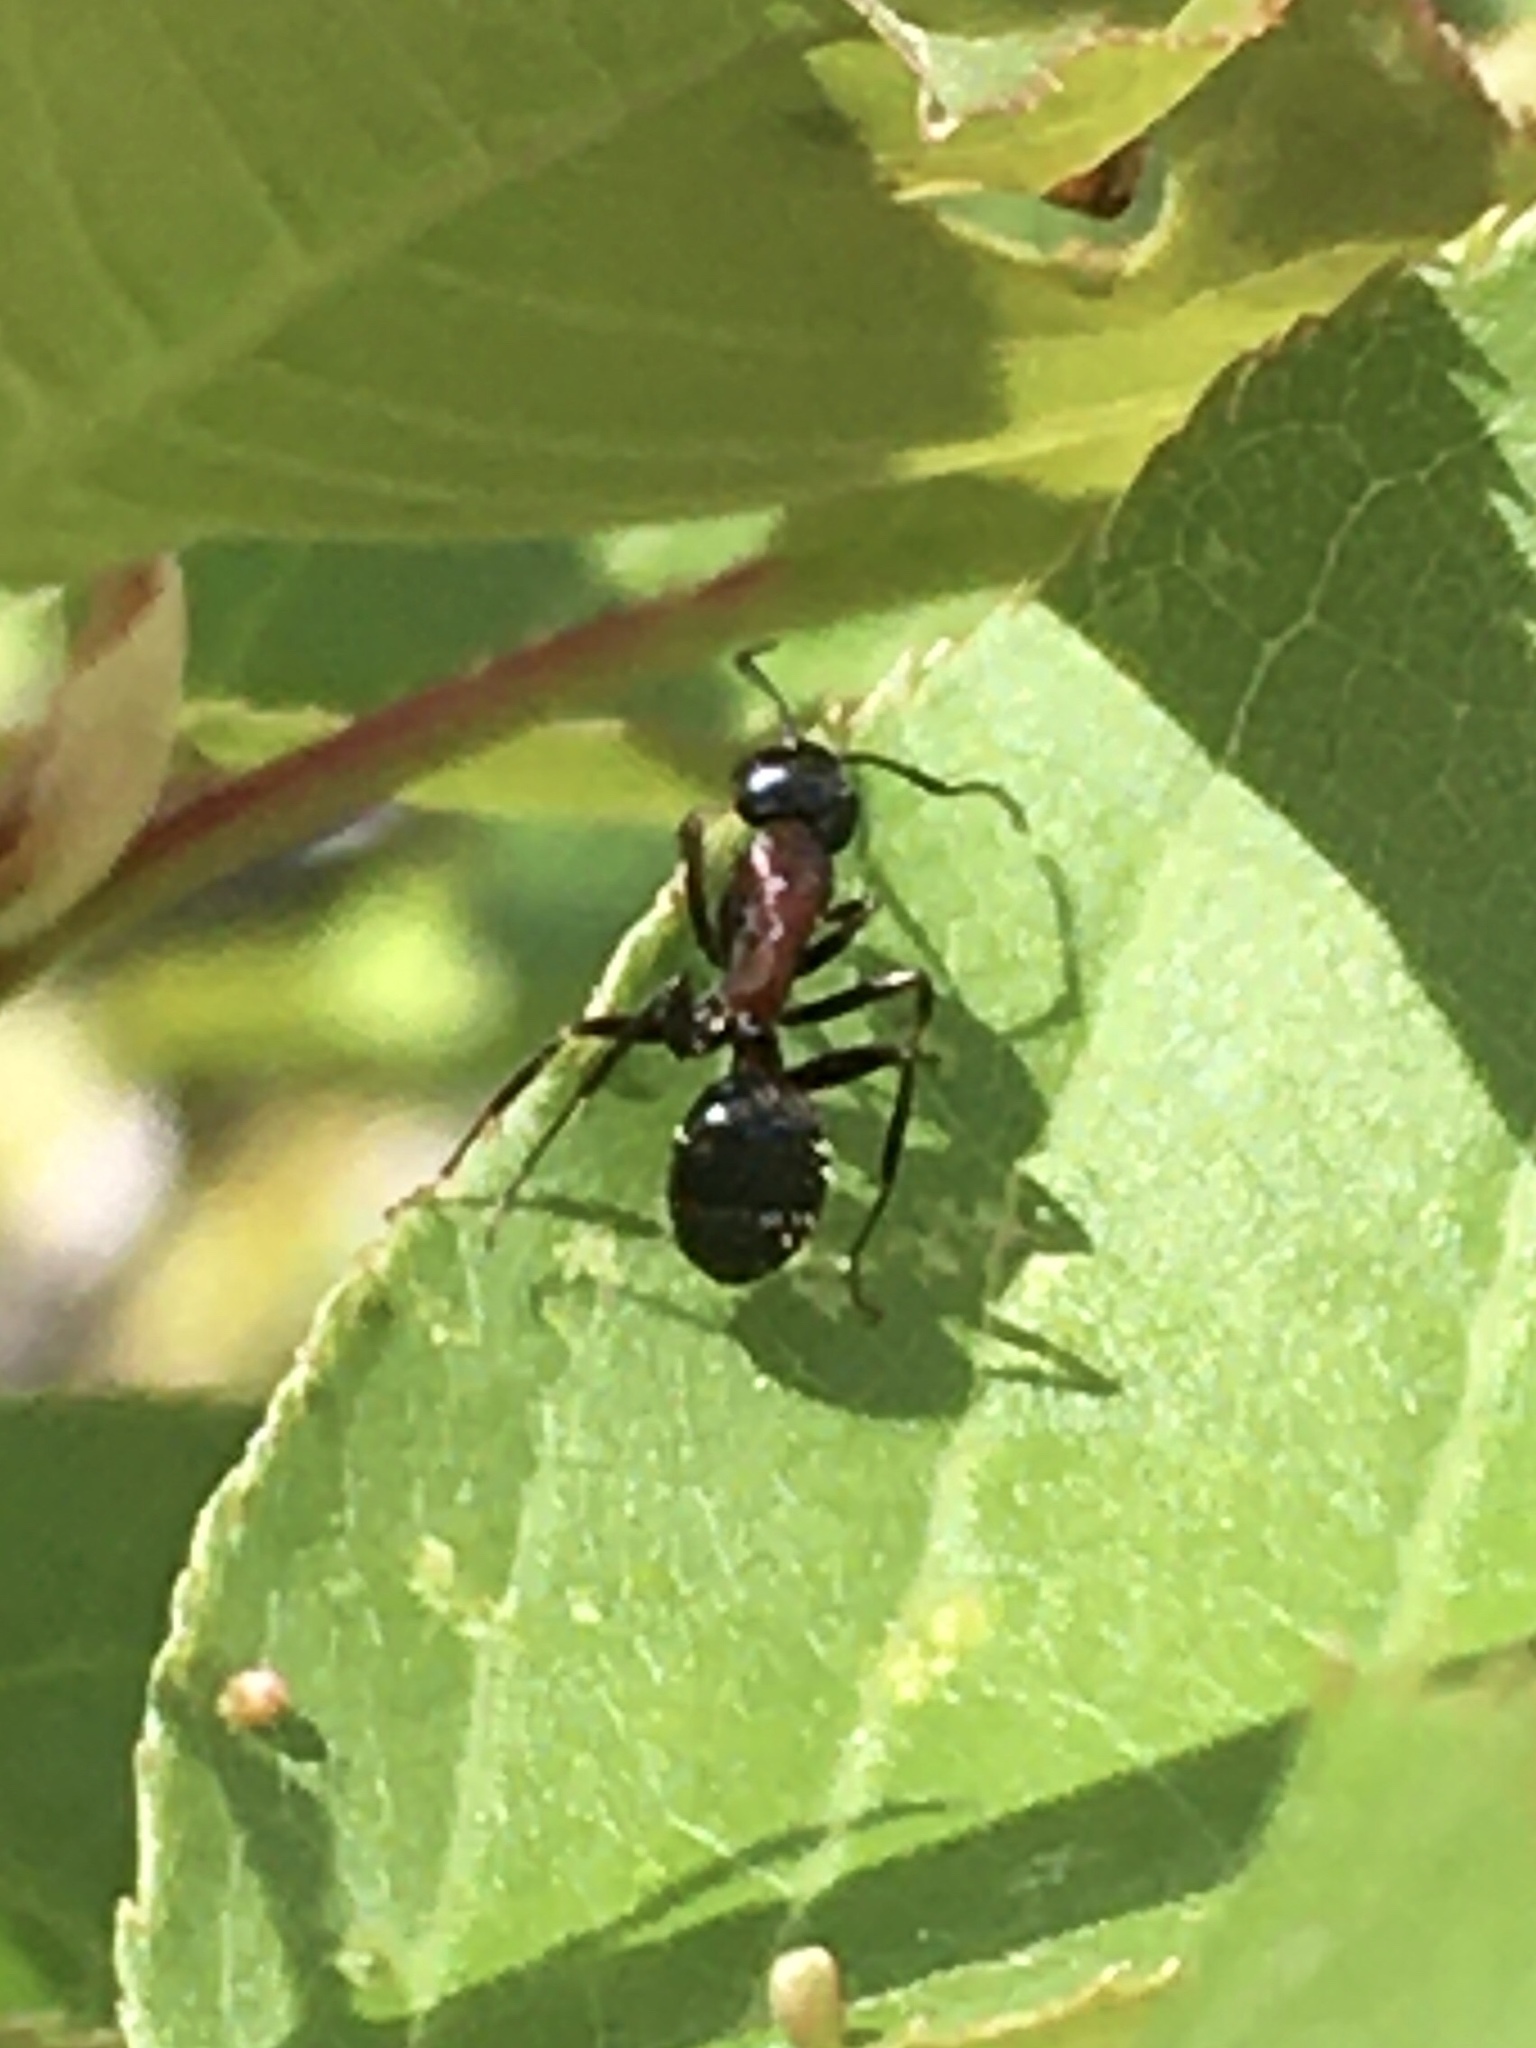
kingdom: Animalia
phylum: Arthropoda
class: Insecta
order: Hymenoptera
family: Formicidae
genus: Camponotus
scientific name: Camponotus novaeboracensis
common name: New york carpenter ant
